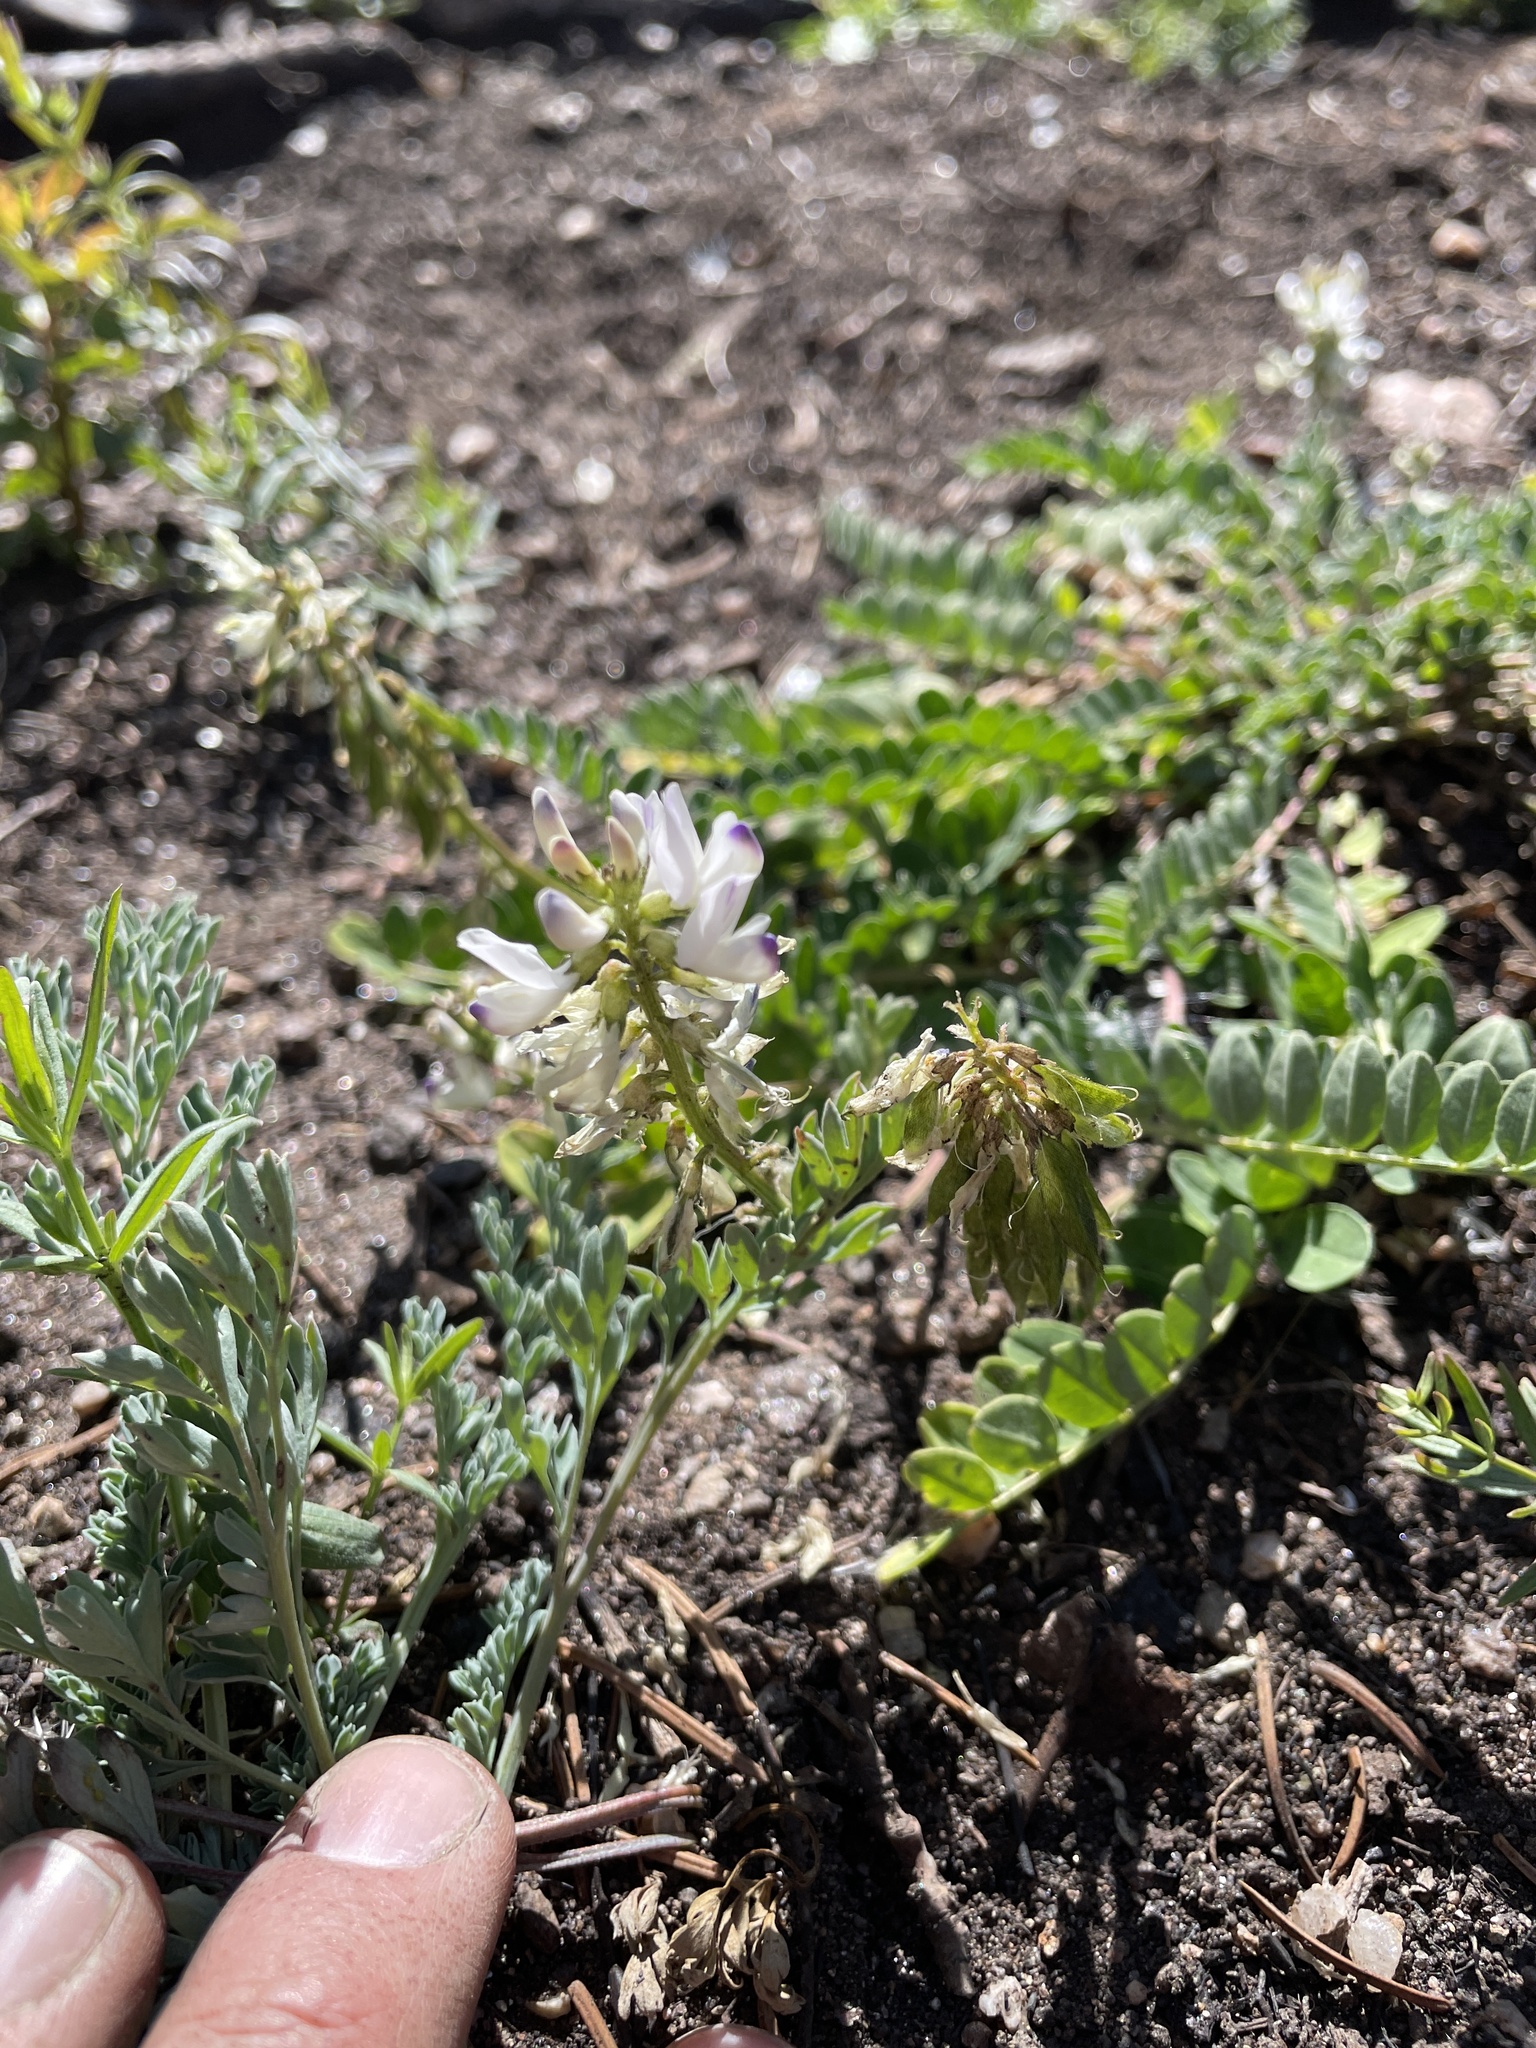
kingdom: Plantae
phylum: Tracheophyta
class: Magnoliopsida
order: Fabales
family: Fabaceae
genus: Astragalus
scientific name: Astragalus alpinus
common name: Alpine milk-vetch
